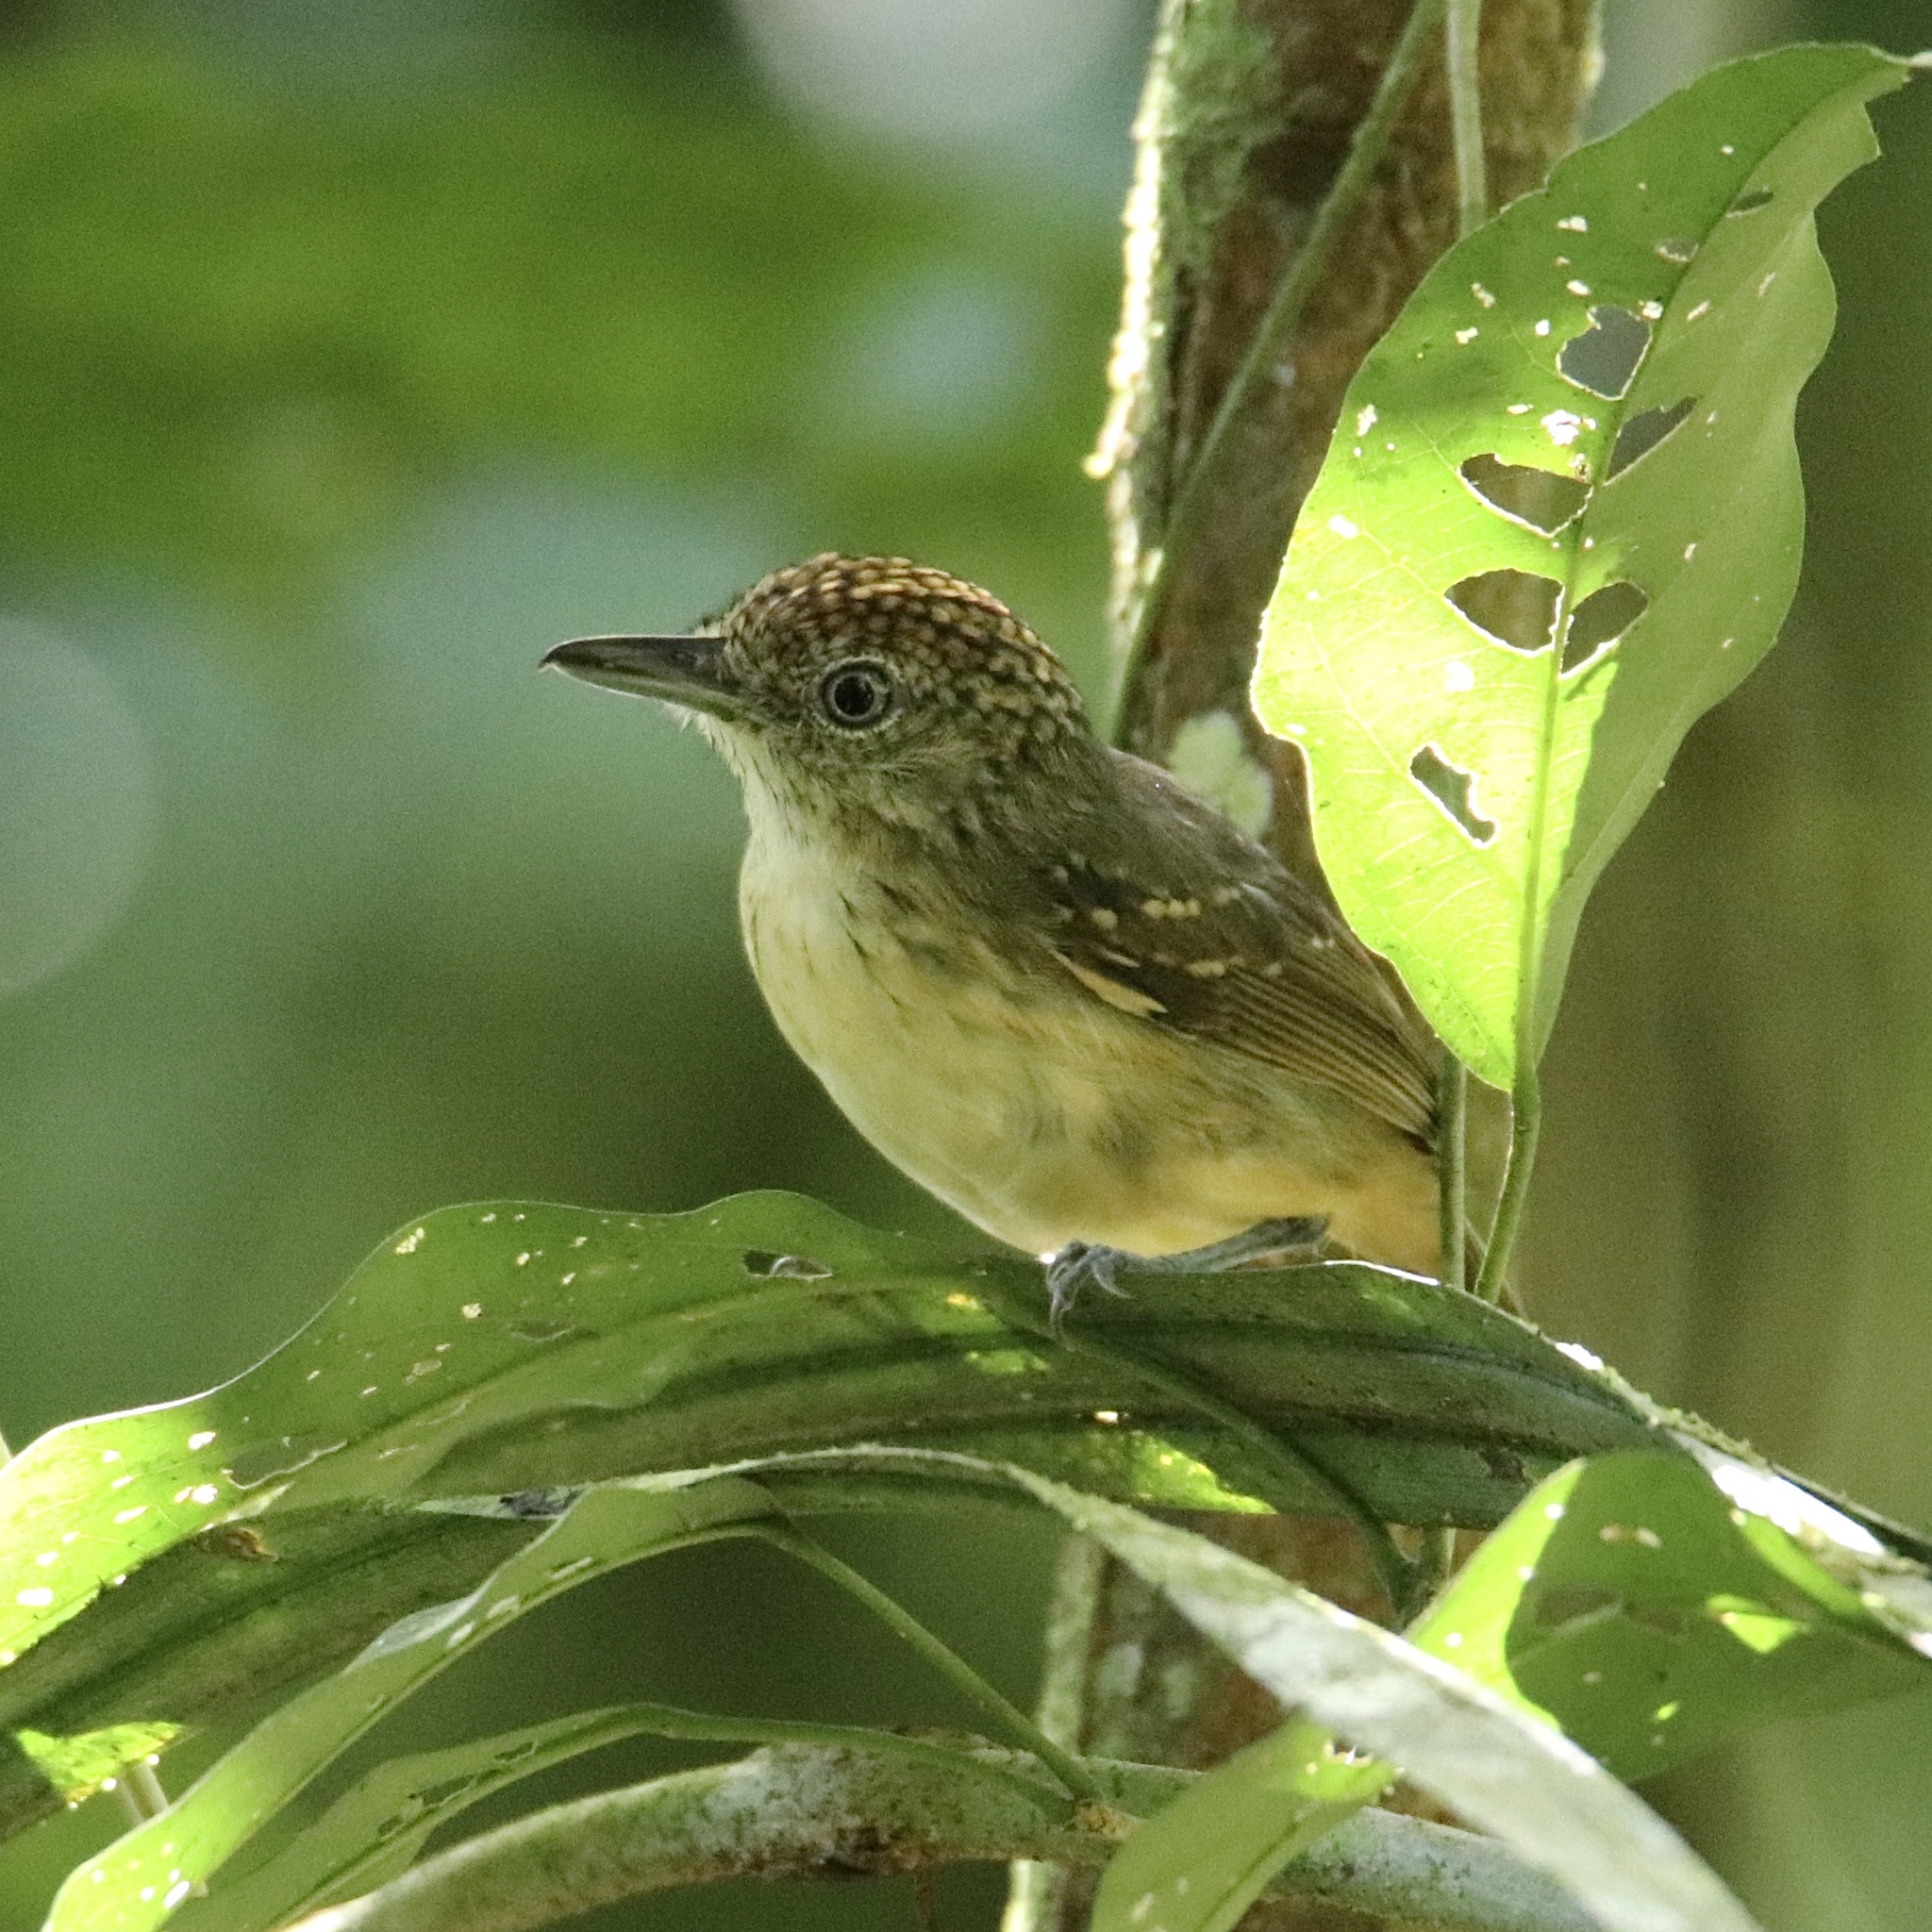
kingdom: Animalia
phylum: Chordata
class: Aves
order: Passeriformes
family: Thamnophilidae
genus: Dysithamnus
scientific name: Dysithamnus puncticeps
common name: Spot-crowned antvireo
